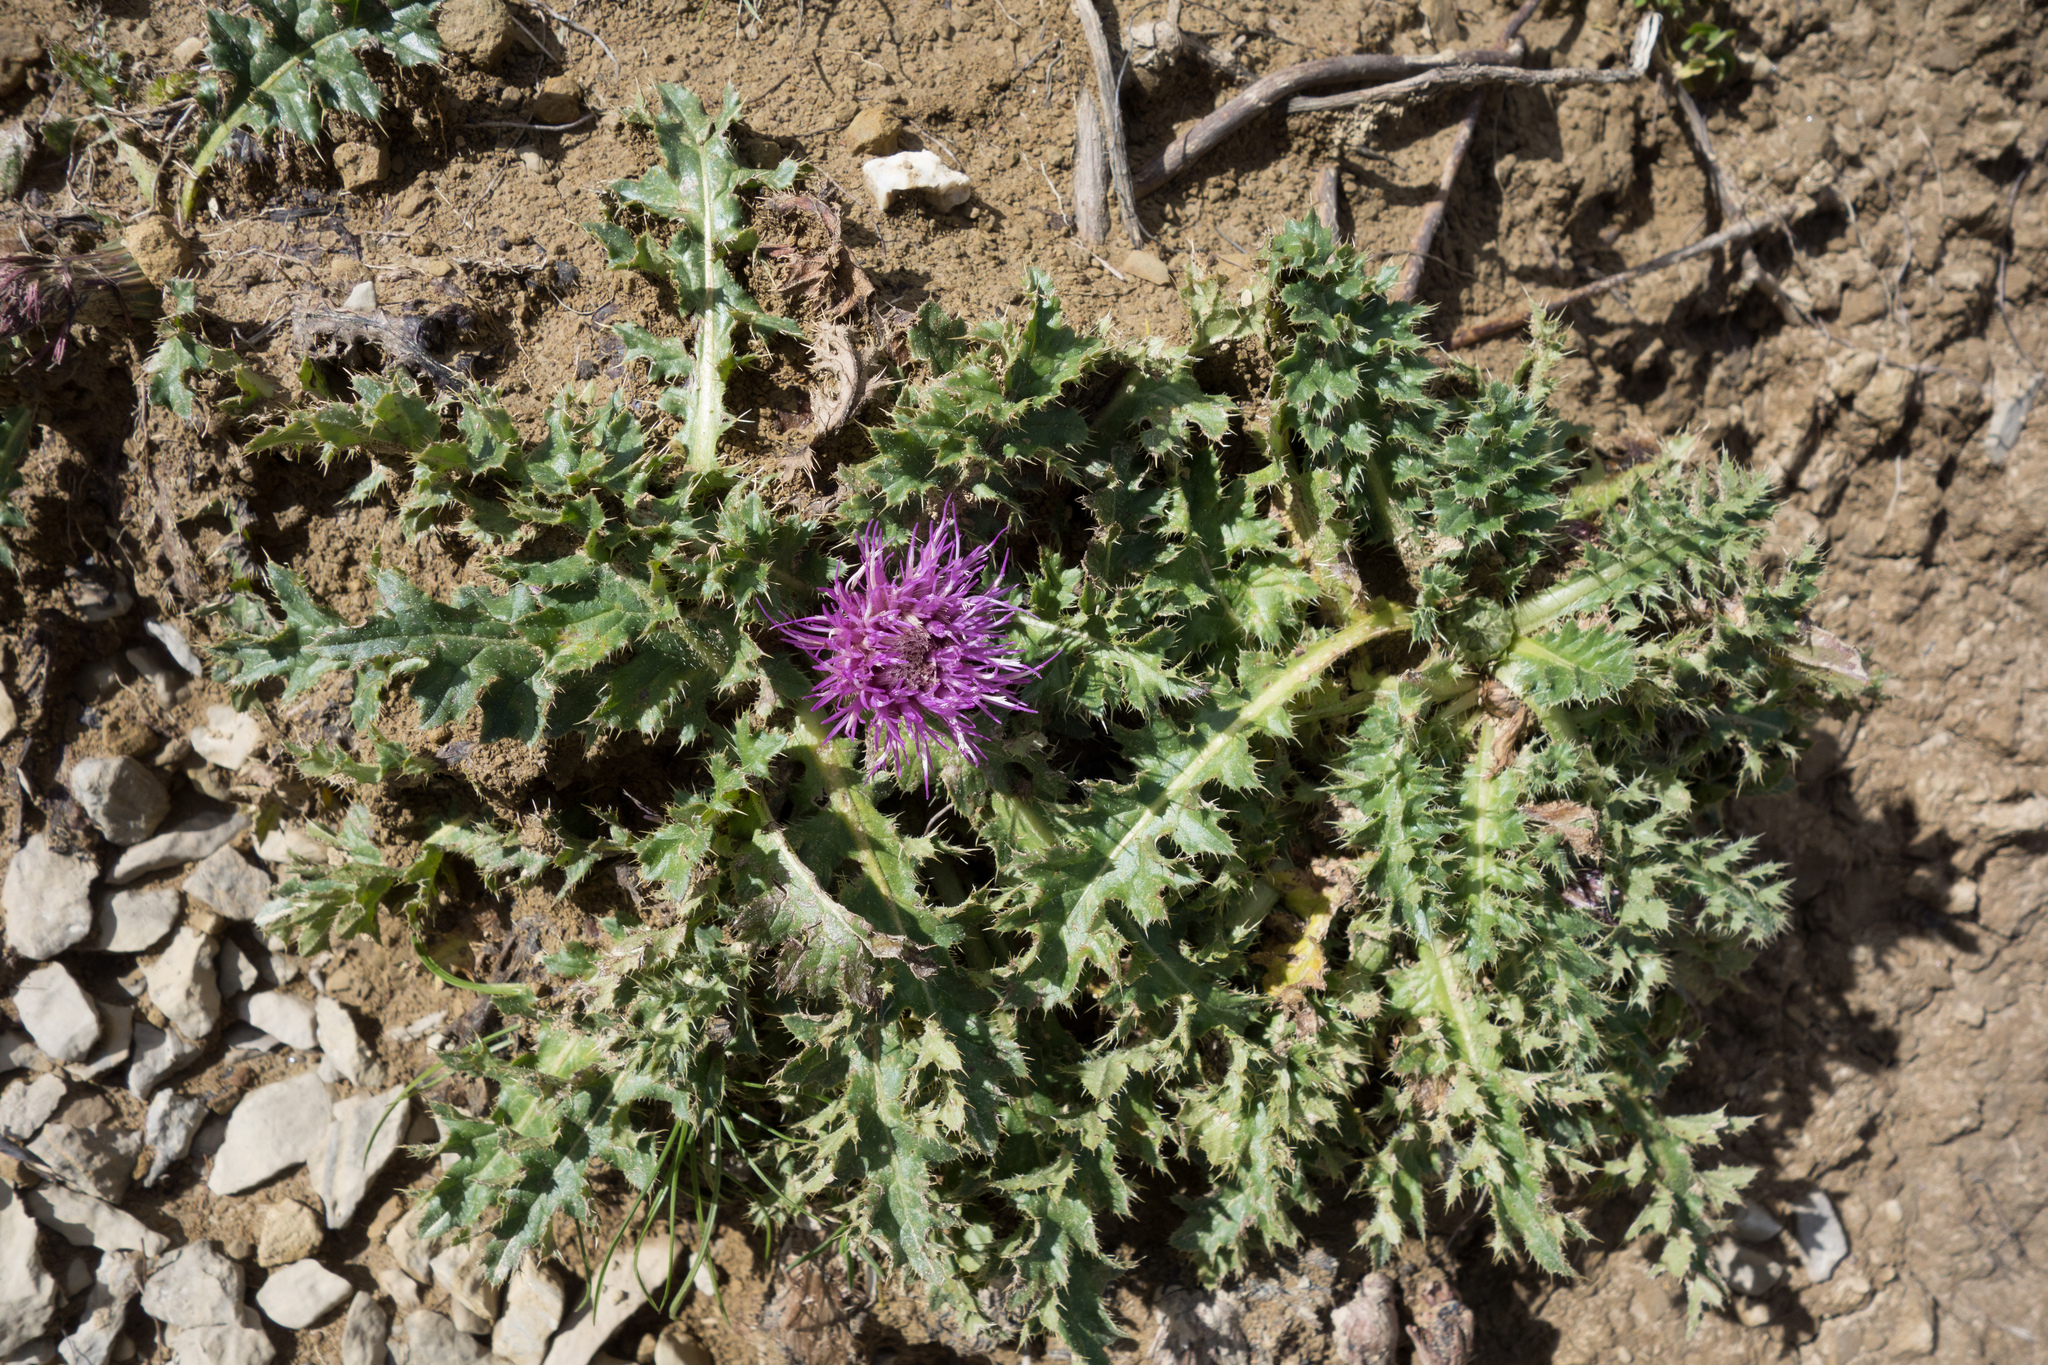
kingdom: Plantae
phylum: Tracheophyta
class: Magnoliopsida
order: Asterales
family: Asteraceae
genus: Cirsium
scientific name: Cirsium acaulon
